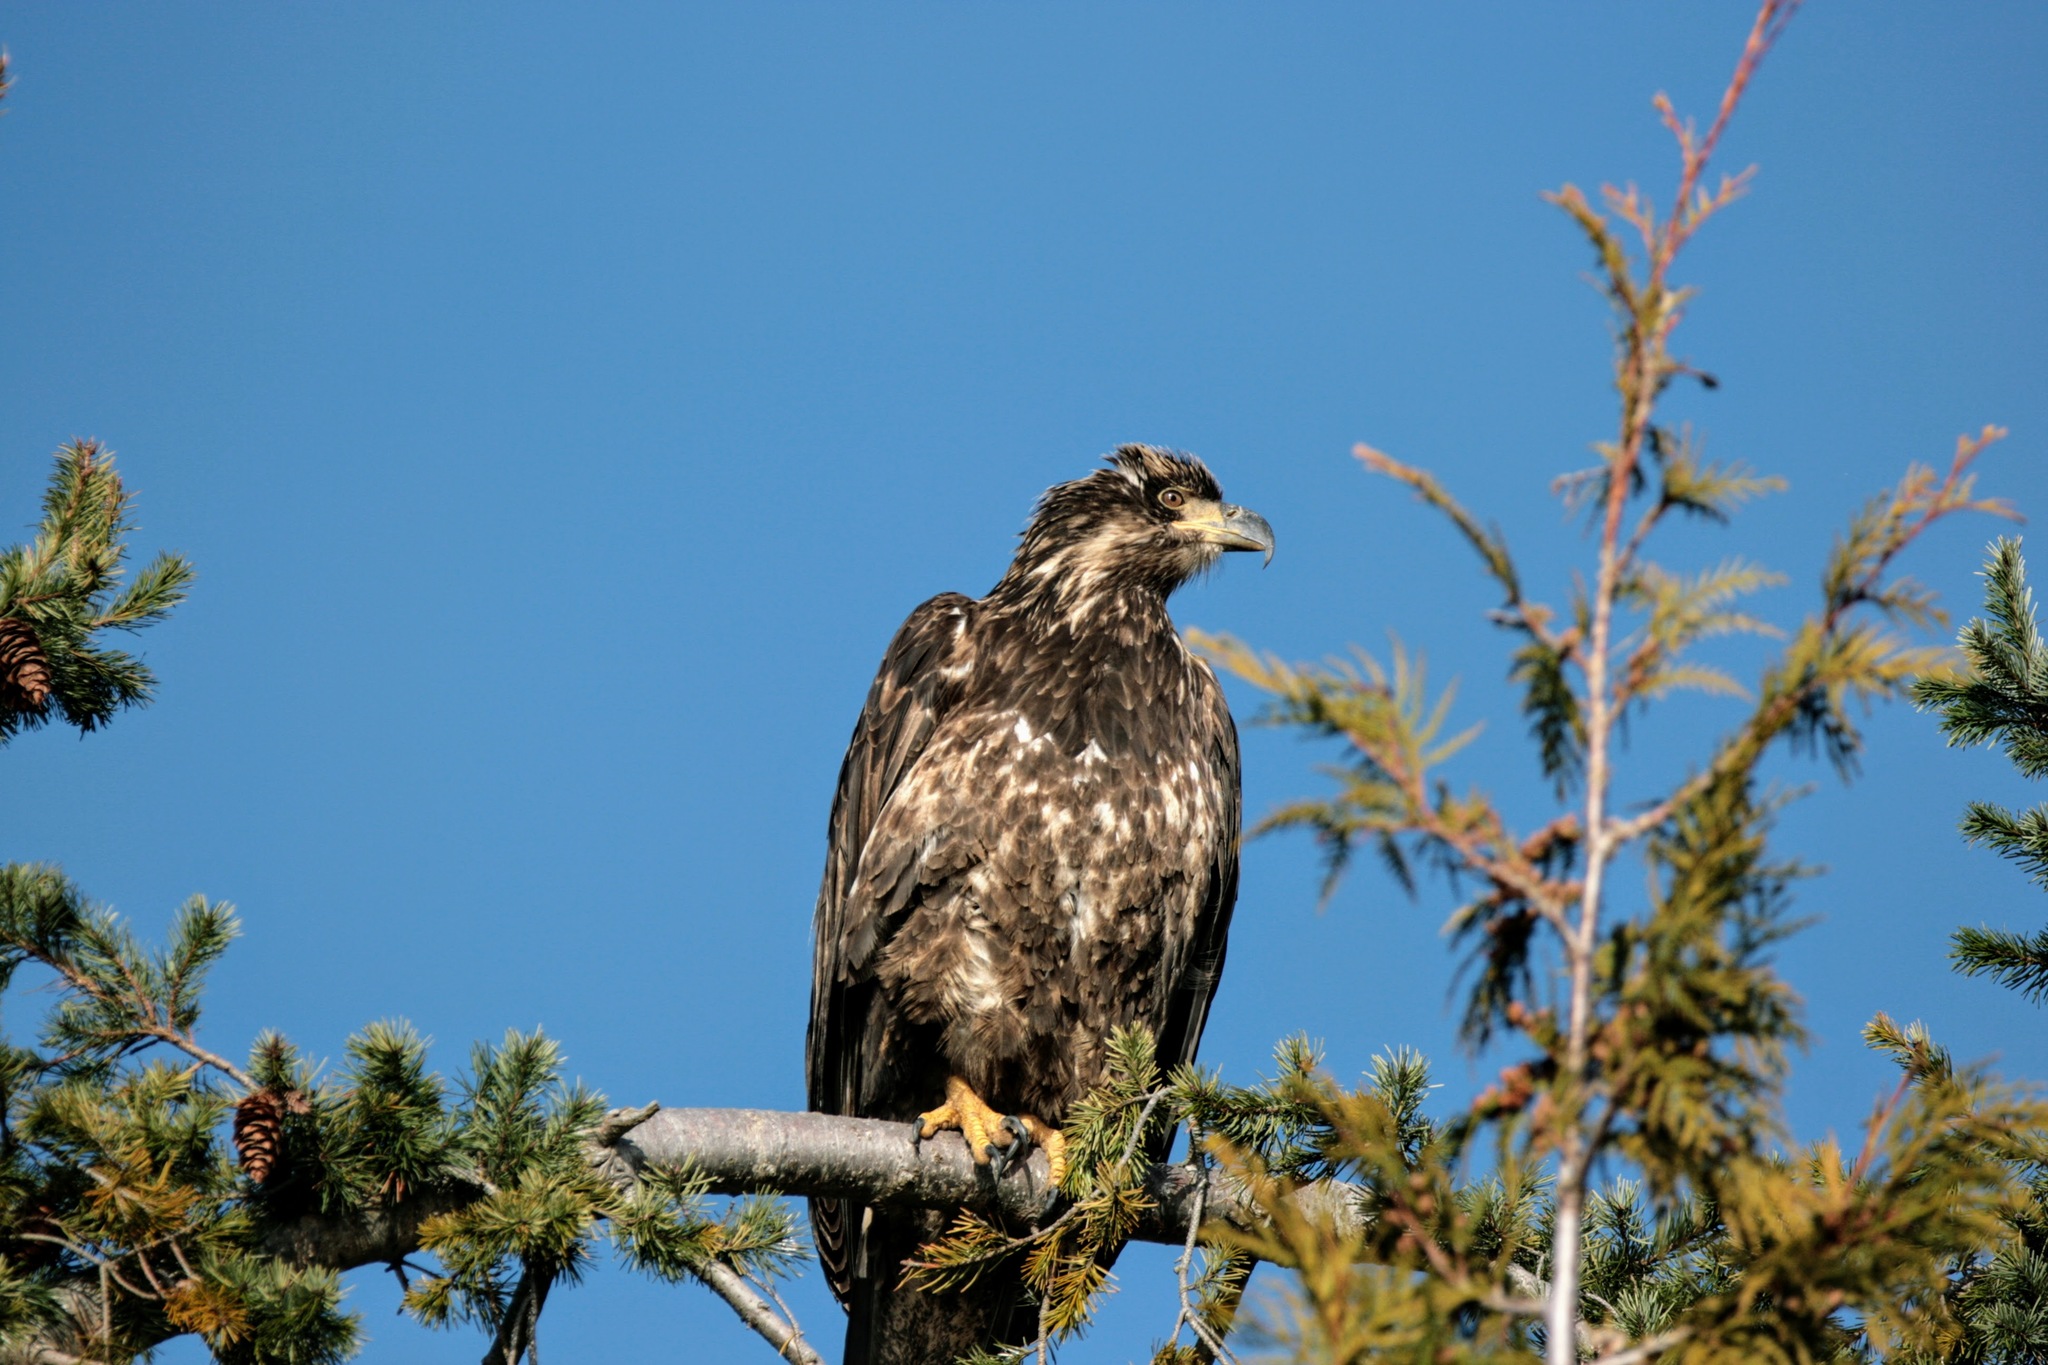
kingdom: Animalia
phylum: Chordata
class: Aves
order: Accipitriformes
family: Accipitridae
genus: Haliaeetus
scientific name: Haliaeetus leucocephalus
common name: Bald eagle
